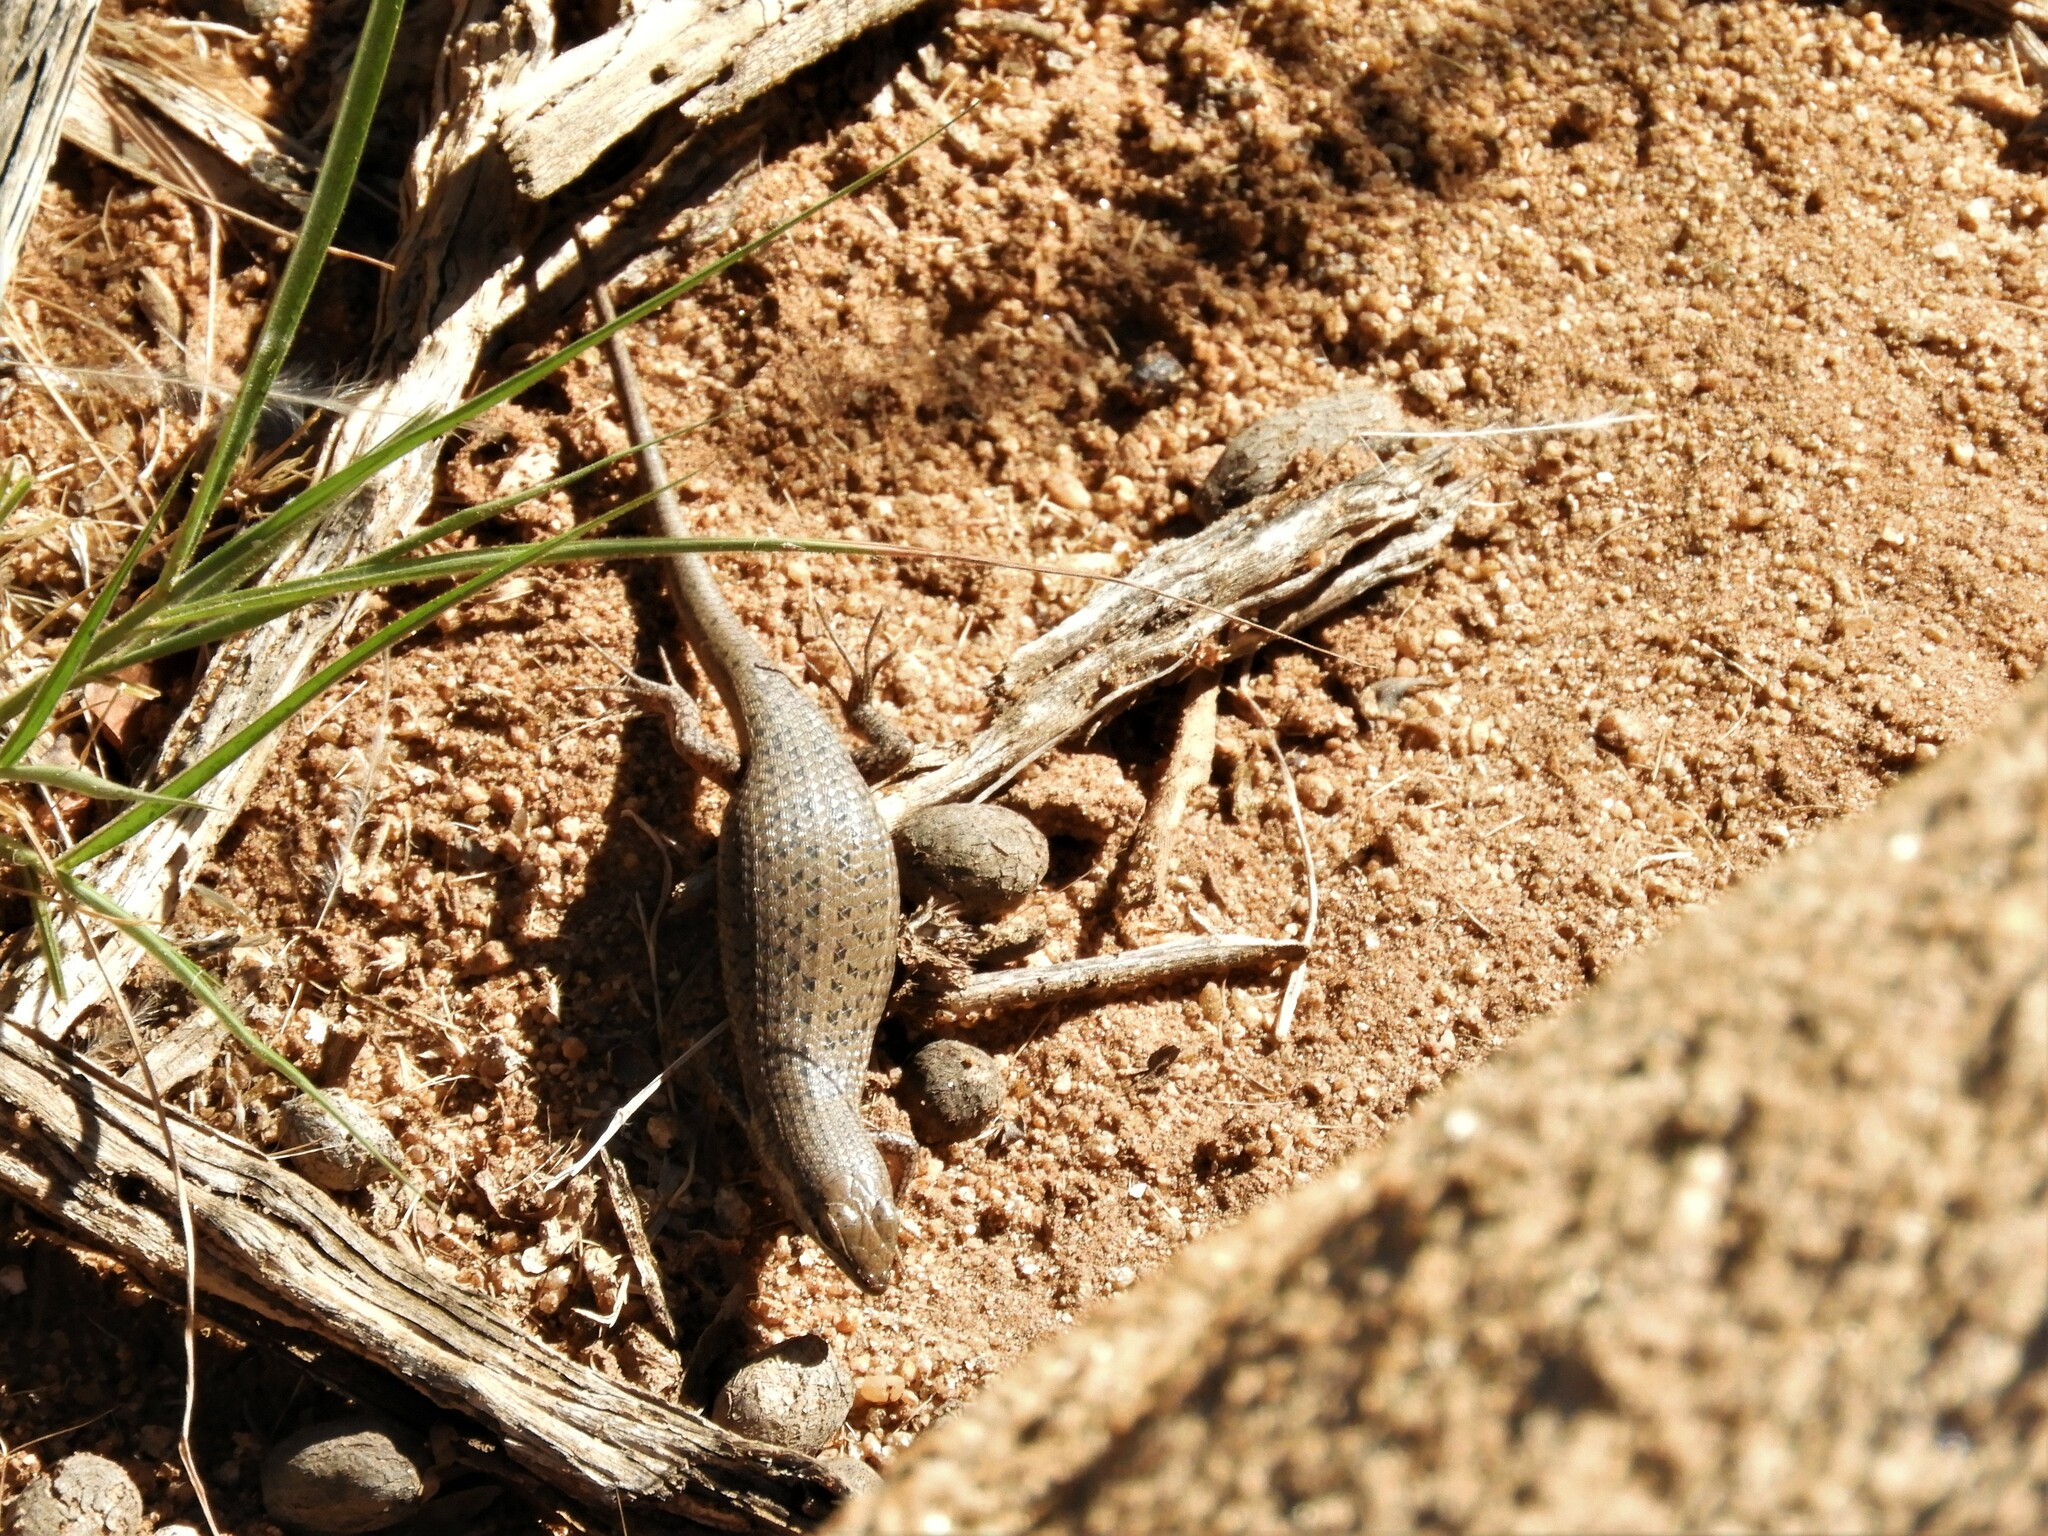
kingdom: Animalia
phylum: Chordata
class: Squamata
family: Scincidae
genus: Trachylepis
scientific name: Trachylepis variegata
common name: Variegated skink
